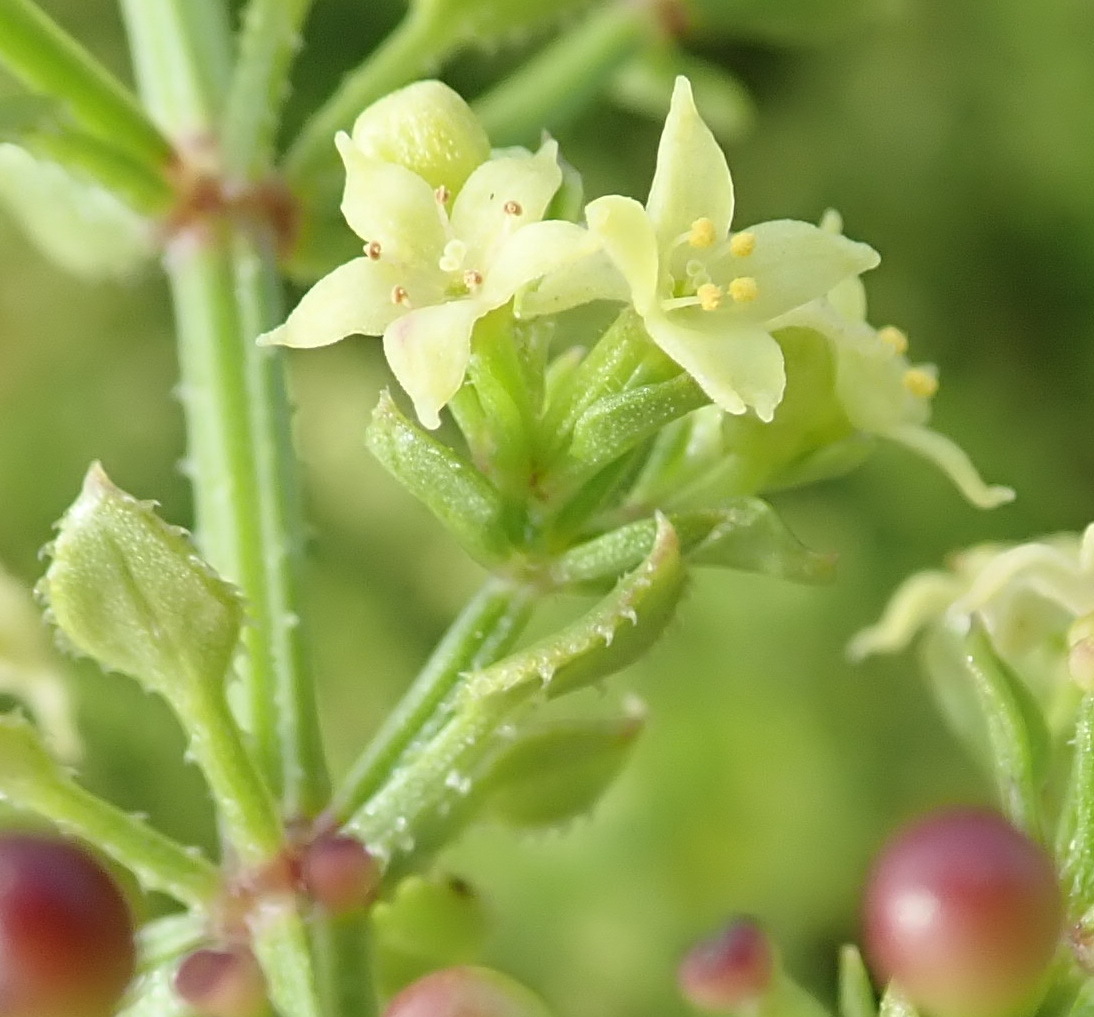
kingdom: Plantae
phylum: Tracheophyta
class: Magnoliopsida
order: Gentianales
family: Rubiaceae
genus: Rubia
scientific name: Rubia petiolaris
